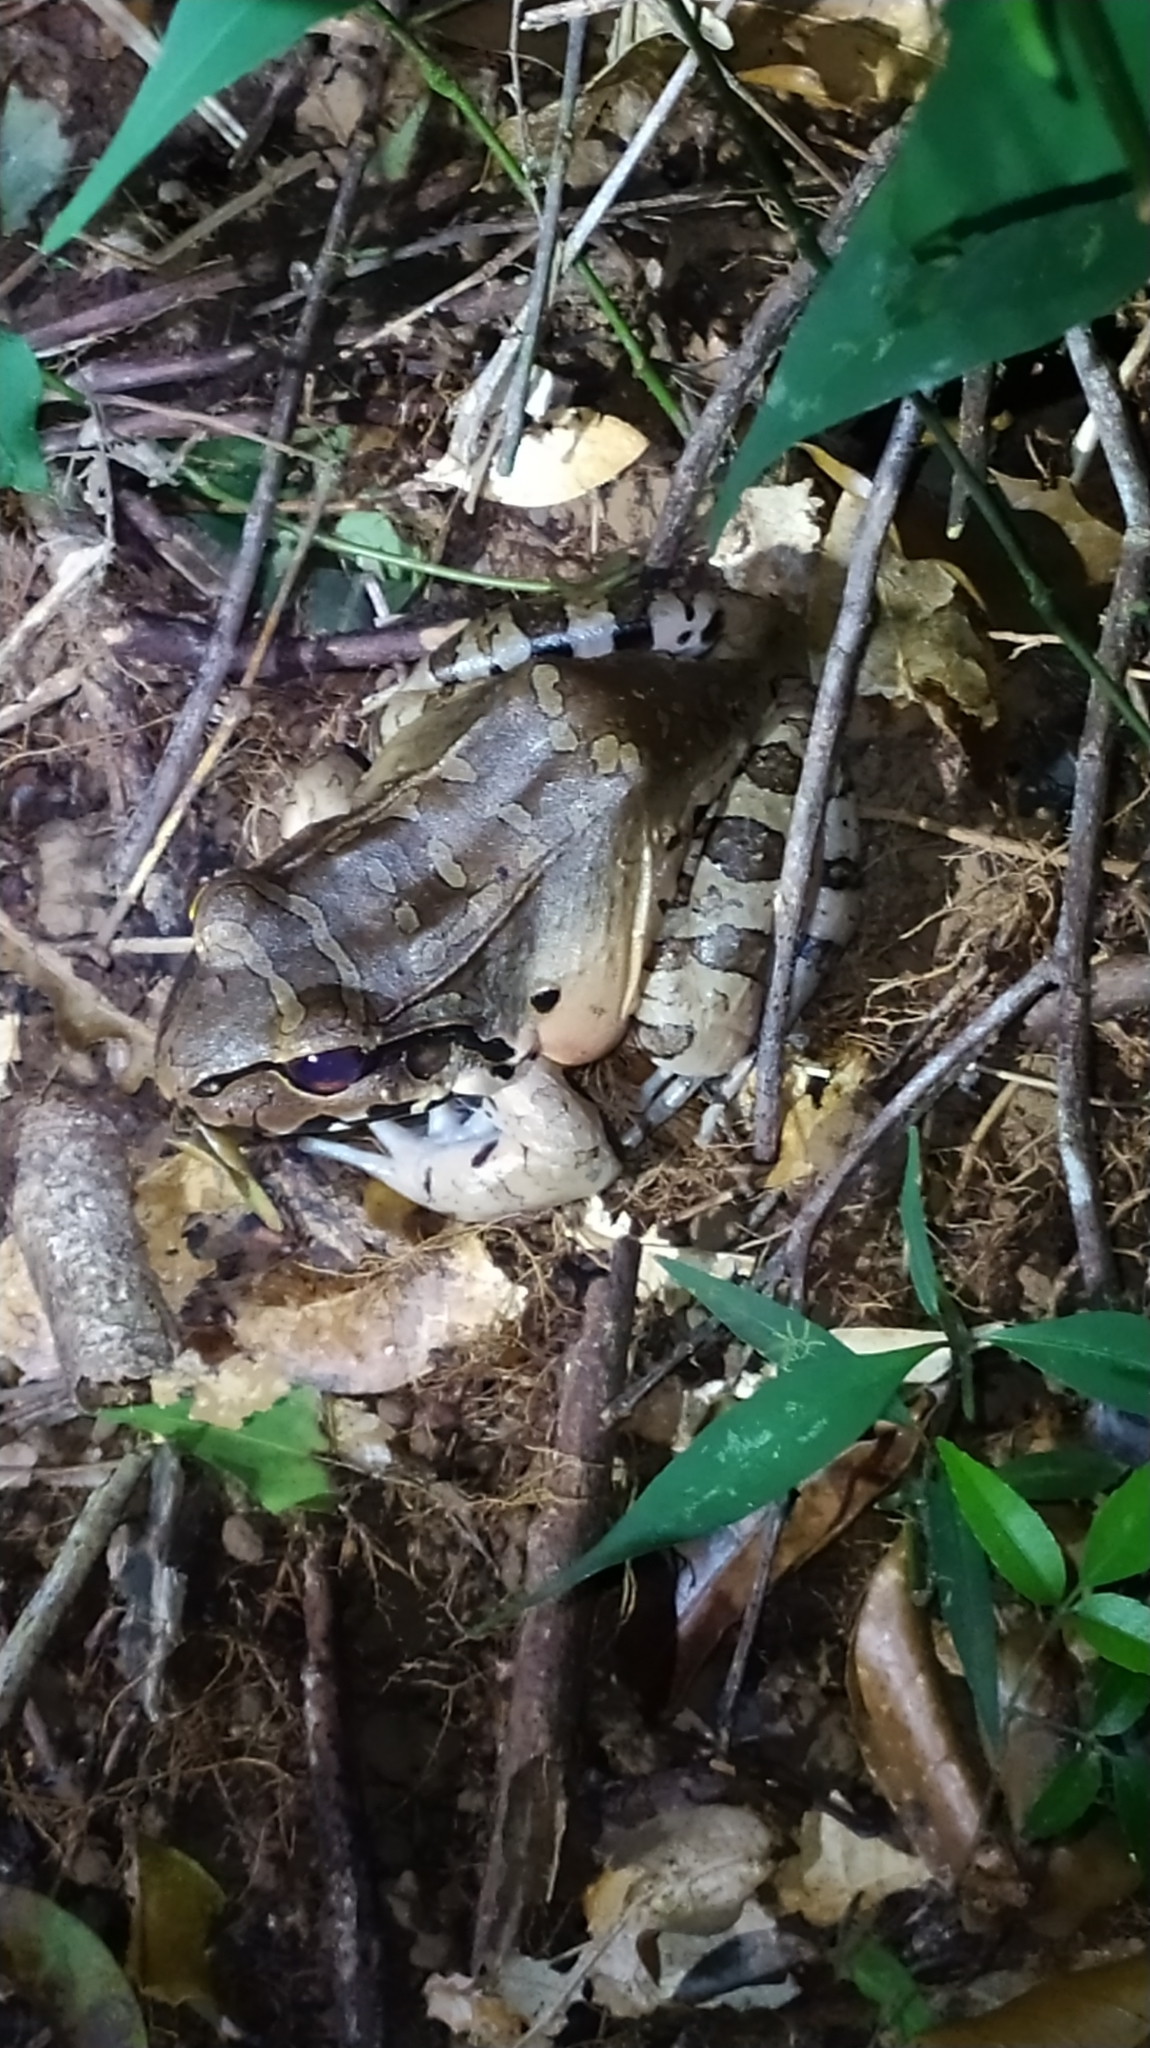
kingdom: Animalia
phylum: Chordata
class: Amphibia
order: Anura
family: Leptodactylidae
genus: Leptodactylus
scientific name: Leptodactylus knudseni
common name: Knudsen's frog
